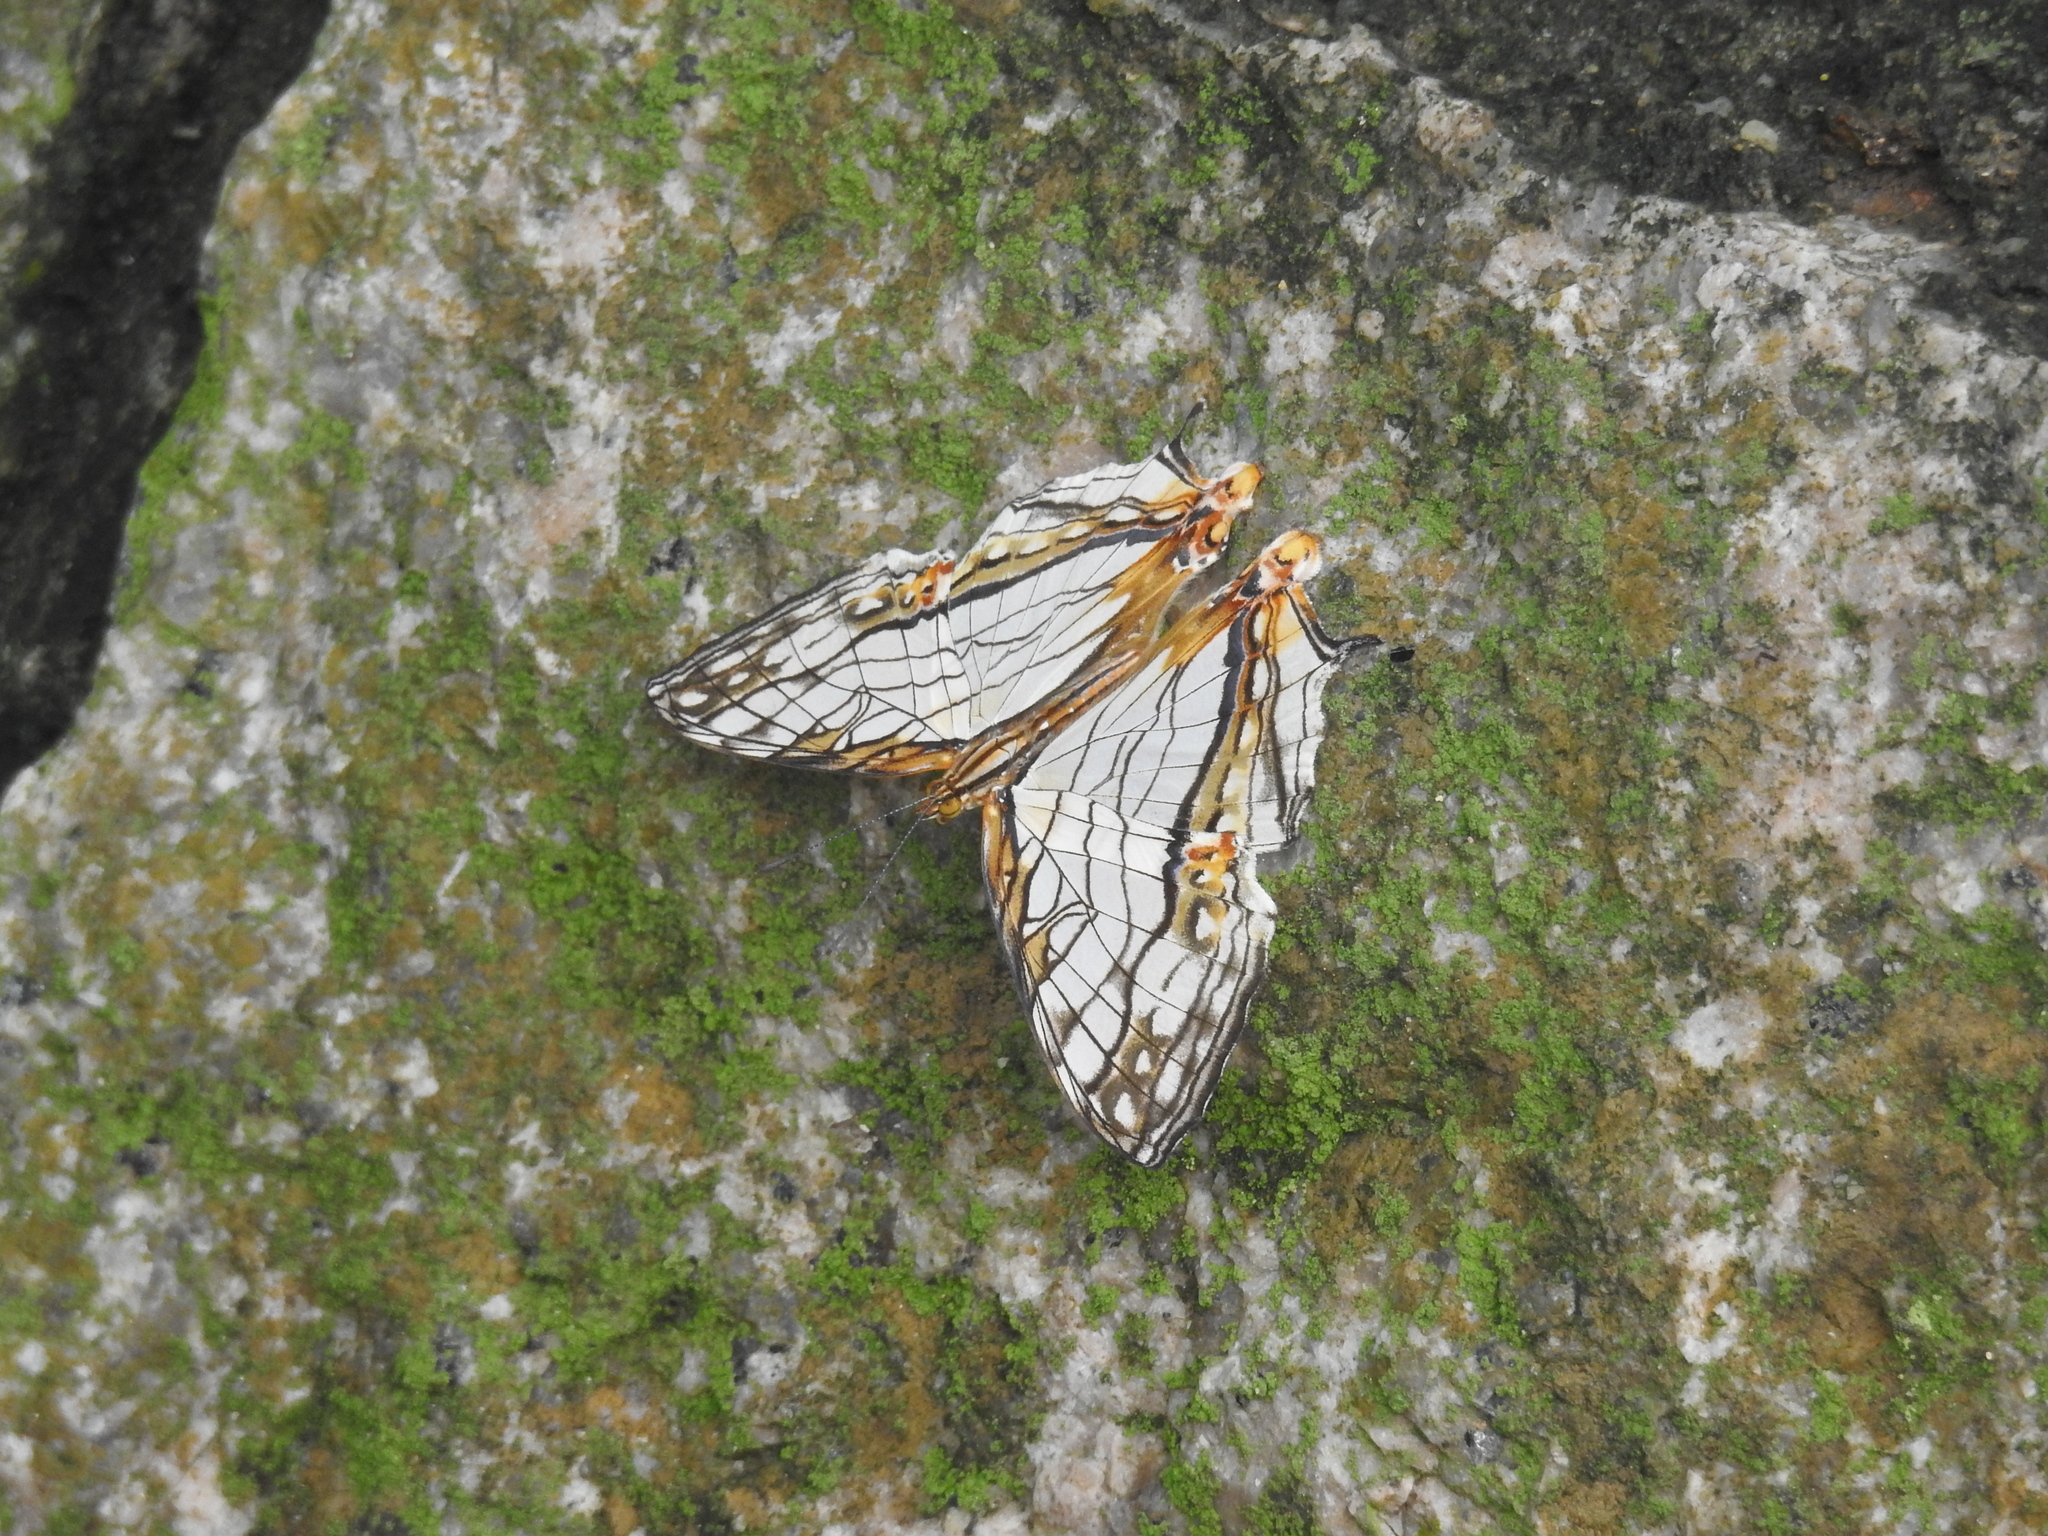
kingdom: Animalia
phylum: Arthropoda
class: Insecta
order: Lepidoptera
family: Nymphalidae
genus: Cyrestis
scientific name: Cyrestis thyodamas
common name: Common mapwing
